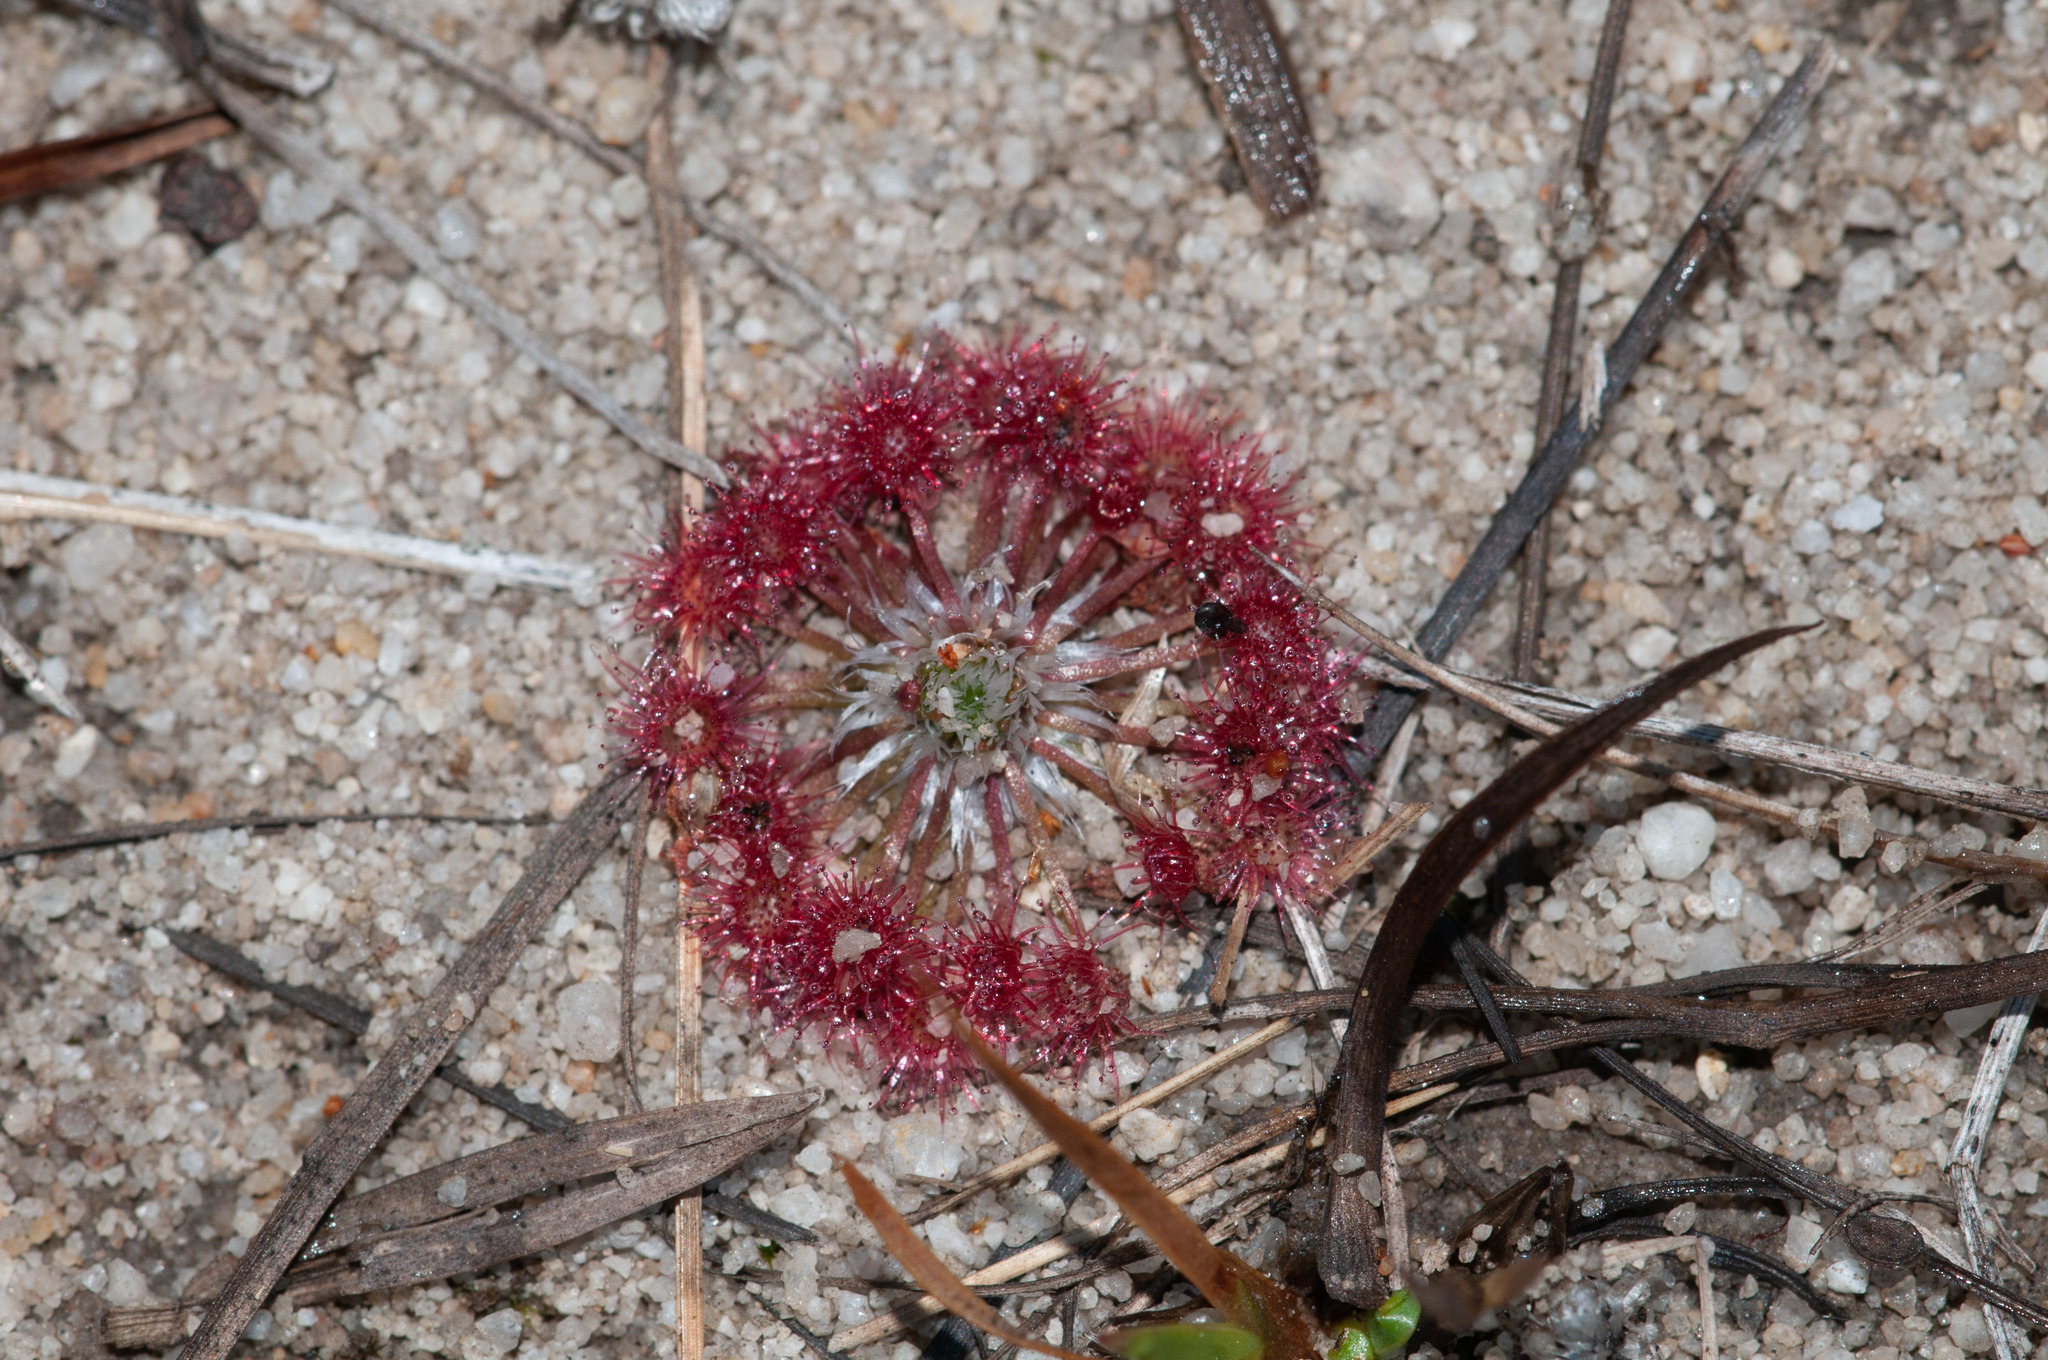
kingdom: Plantae
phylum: Tracheophyta
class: Magnoliopsida
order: Caryophyllales
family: Droseraceae
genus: Drosera
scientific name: Drosera pygmaea
